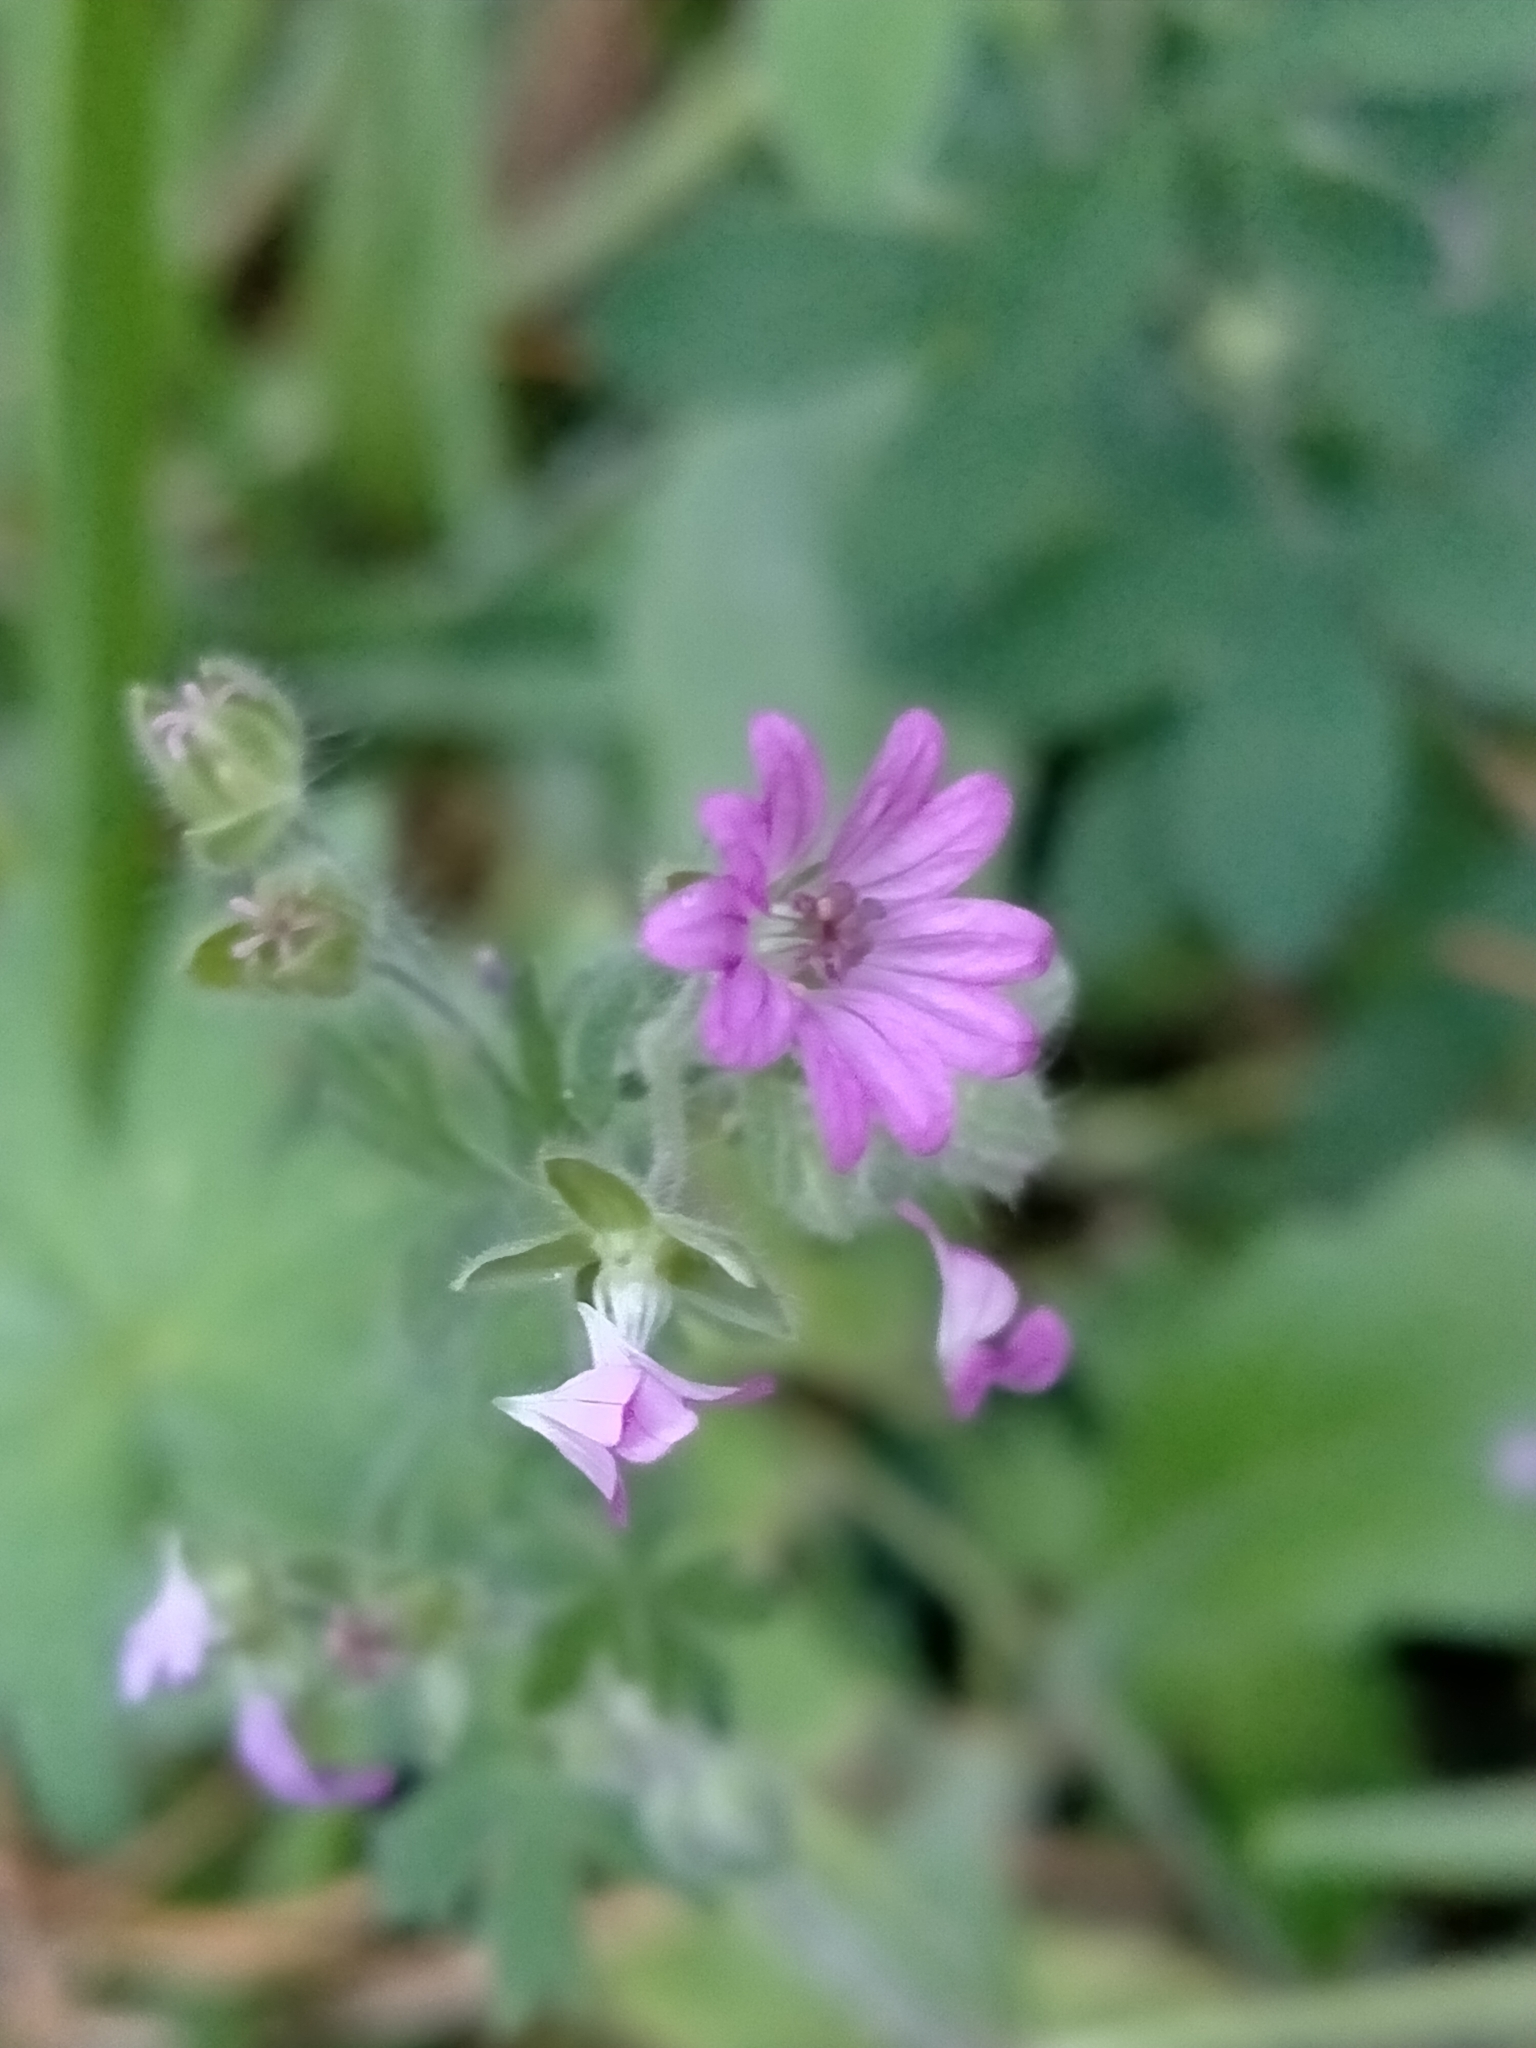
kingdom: Plantae
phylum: Tracheophyta
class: Magnoliopsida
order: Geraniales
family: Geraniaceae
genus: Geranium
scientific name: Geranium molle
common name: Dove's-foot crane's-bill
